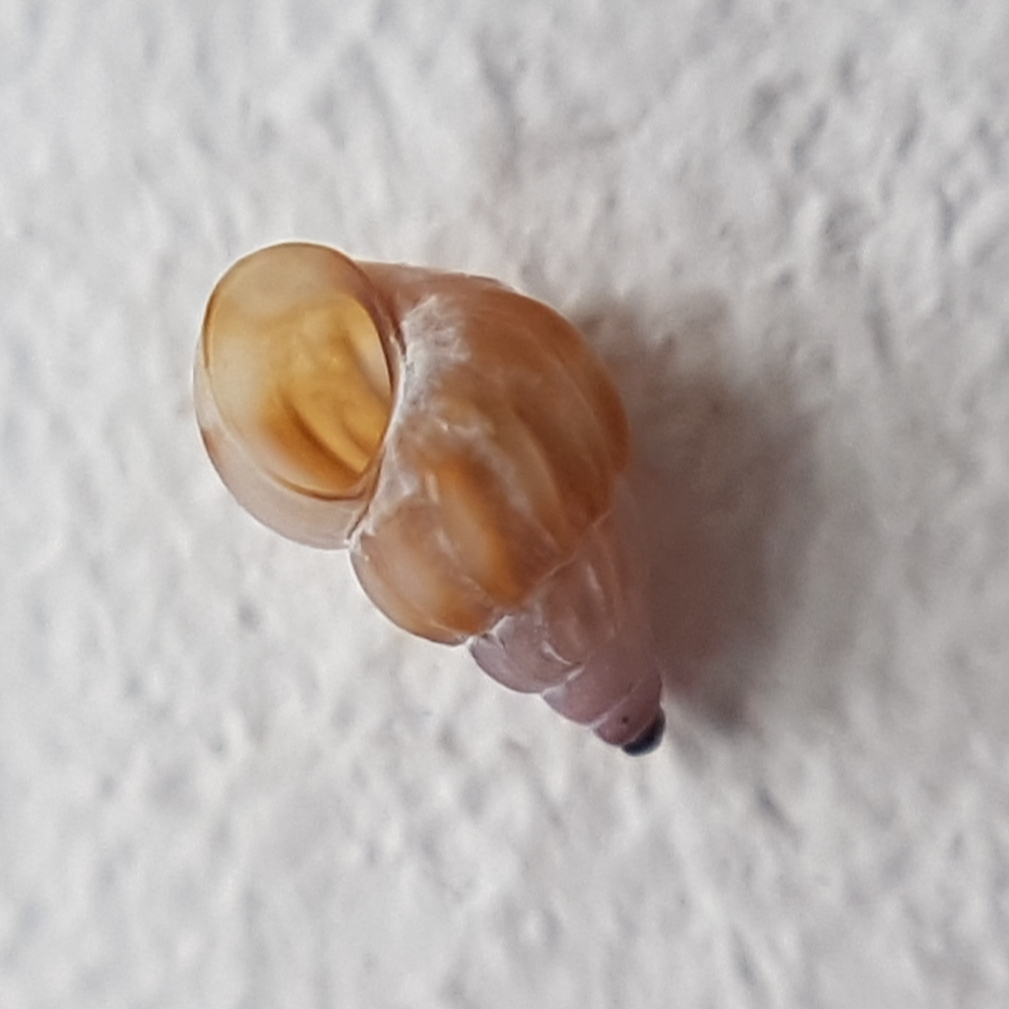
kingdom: Animalia
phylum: Mollusca
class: Gastropoda
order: Littorinimorpha
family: Rissoidae
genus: Rissoa
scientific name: Rissoa parva
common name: Tiny risso snail
